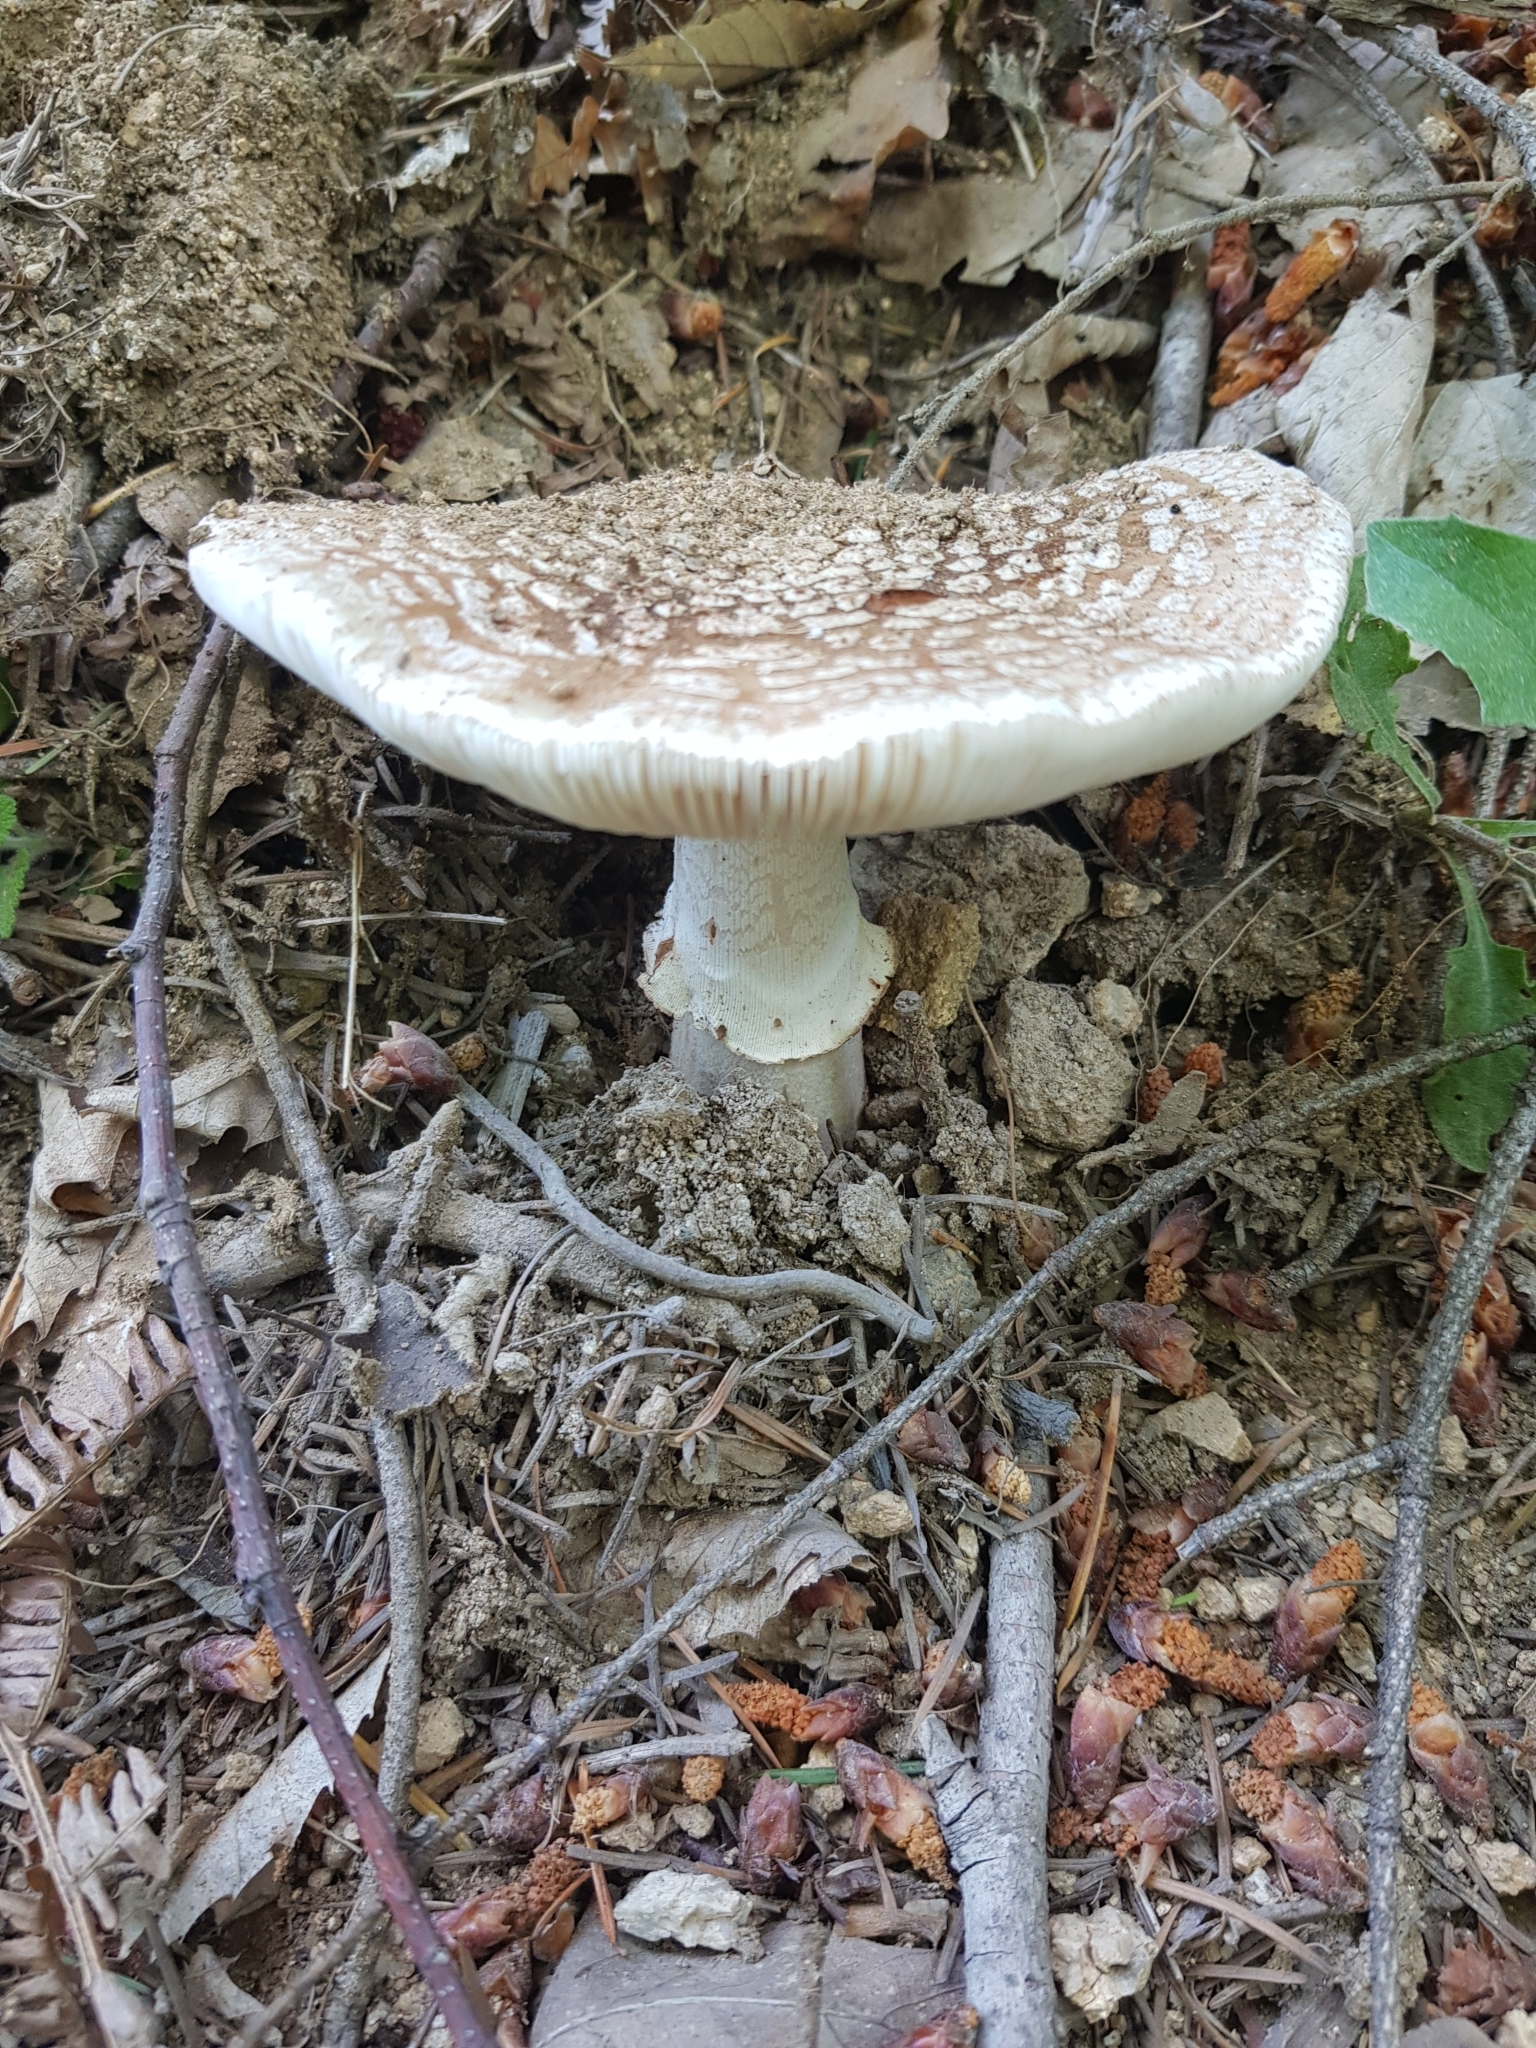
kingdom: Fungi
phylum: Basidiomycota
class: Agaricomycetes
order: Agaricales
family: Amanitaceae
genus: Amanita
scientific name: Amanita rubescens
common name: Blusher
